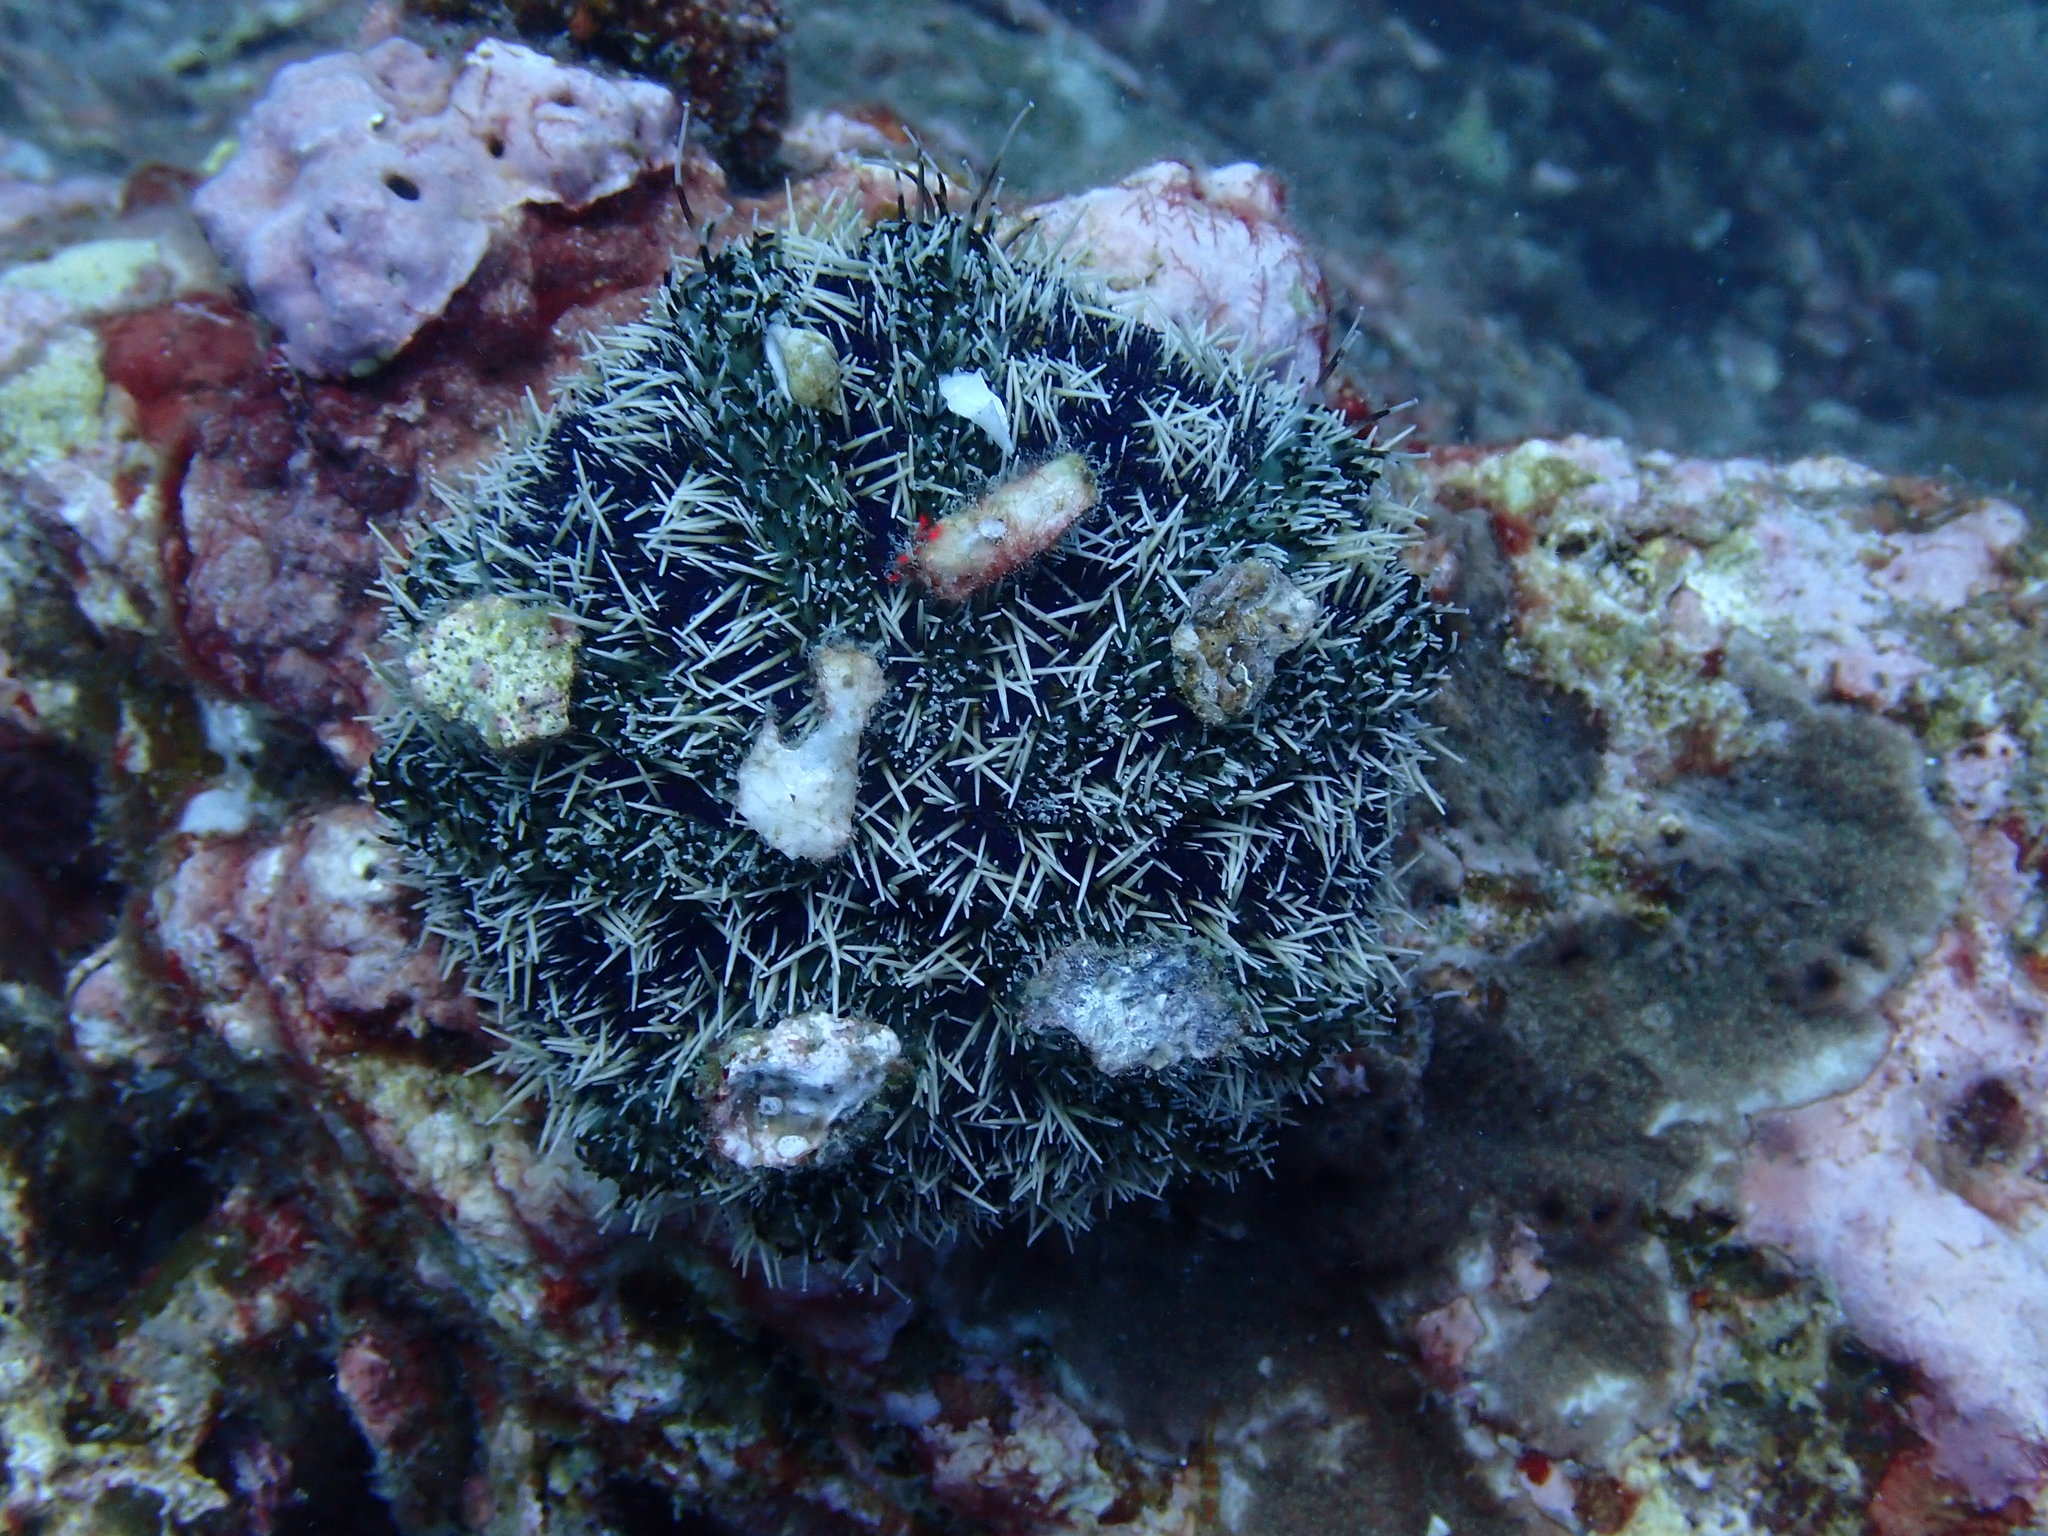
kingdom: Animalia
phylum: Echinodermata
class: Echinoidea
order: Camarodonta
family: Toxopneustidae
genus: Tripneustes
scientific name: Tripneustes gratilla
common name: Bischofsmützenseeigel
